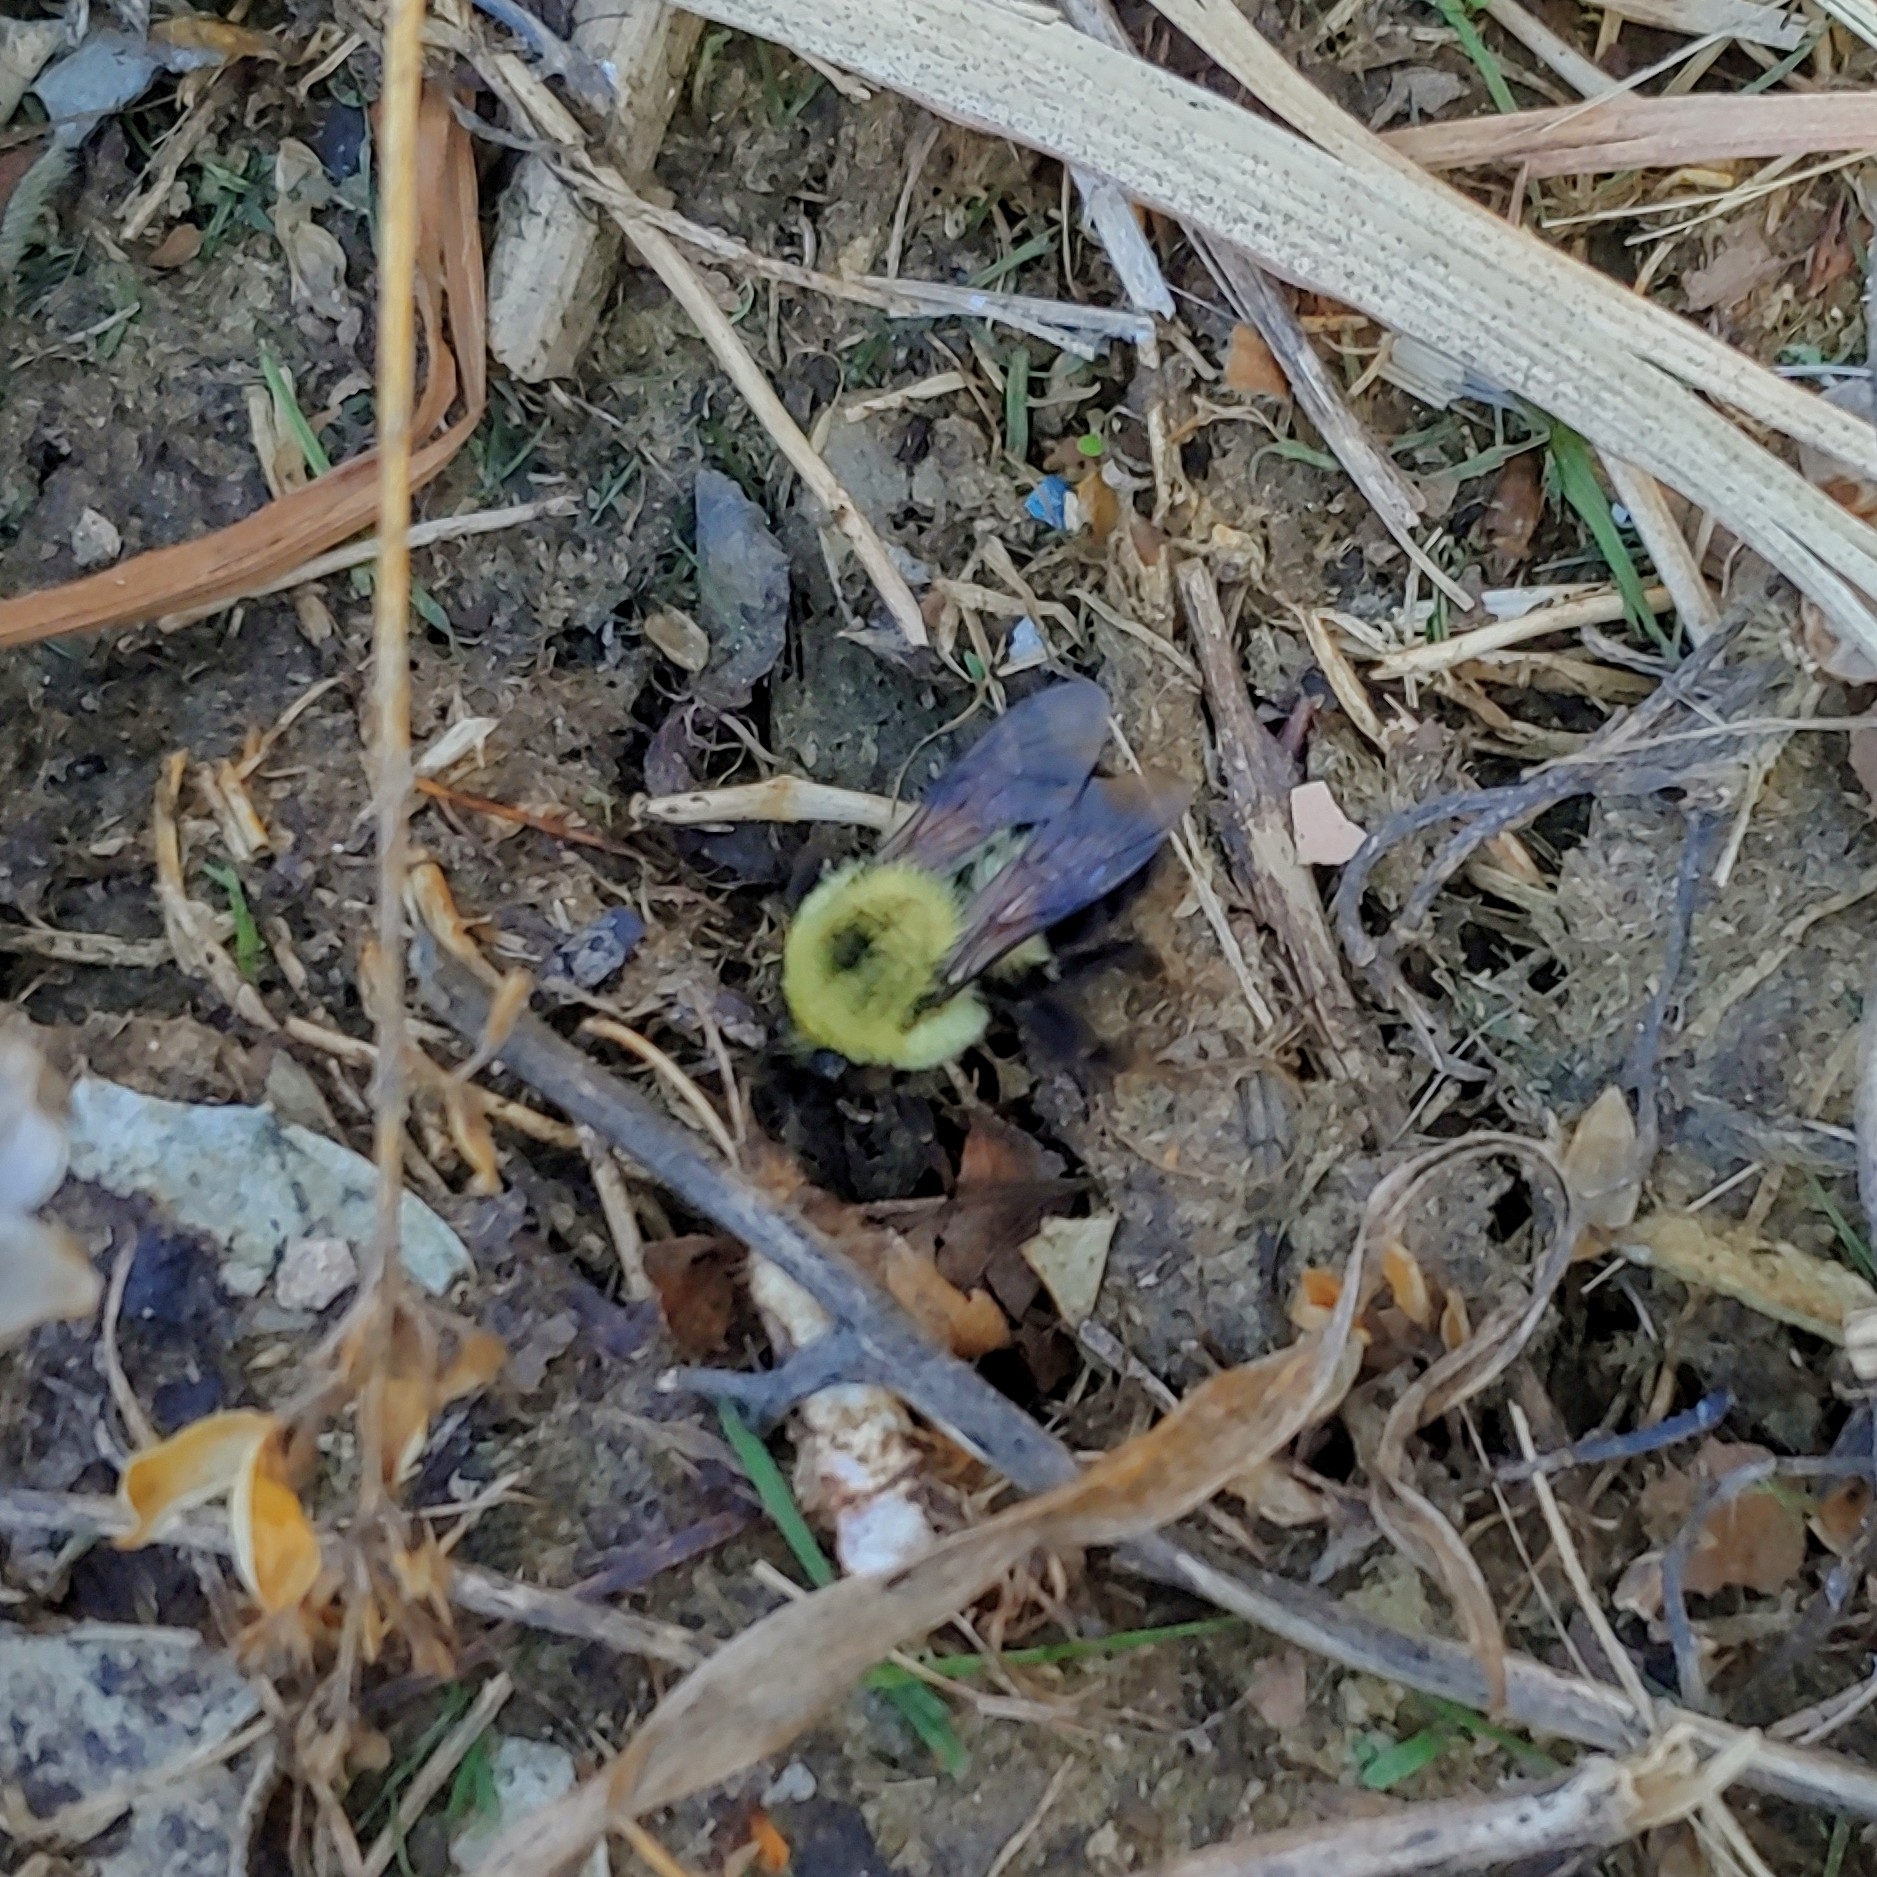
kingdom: Animalia
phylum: Arthropoda
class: Insecta
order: Hymenoptera
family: Apidae
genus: Bombus
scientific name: Bombus bimaculatus
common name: Two-spotted bumble bee
